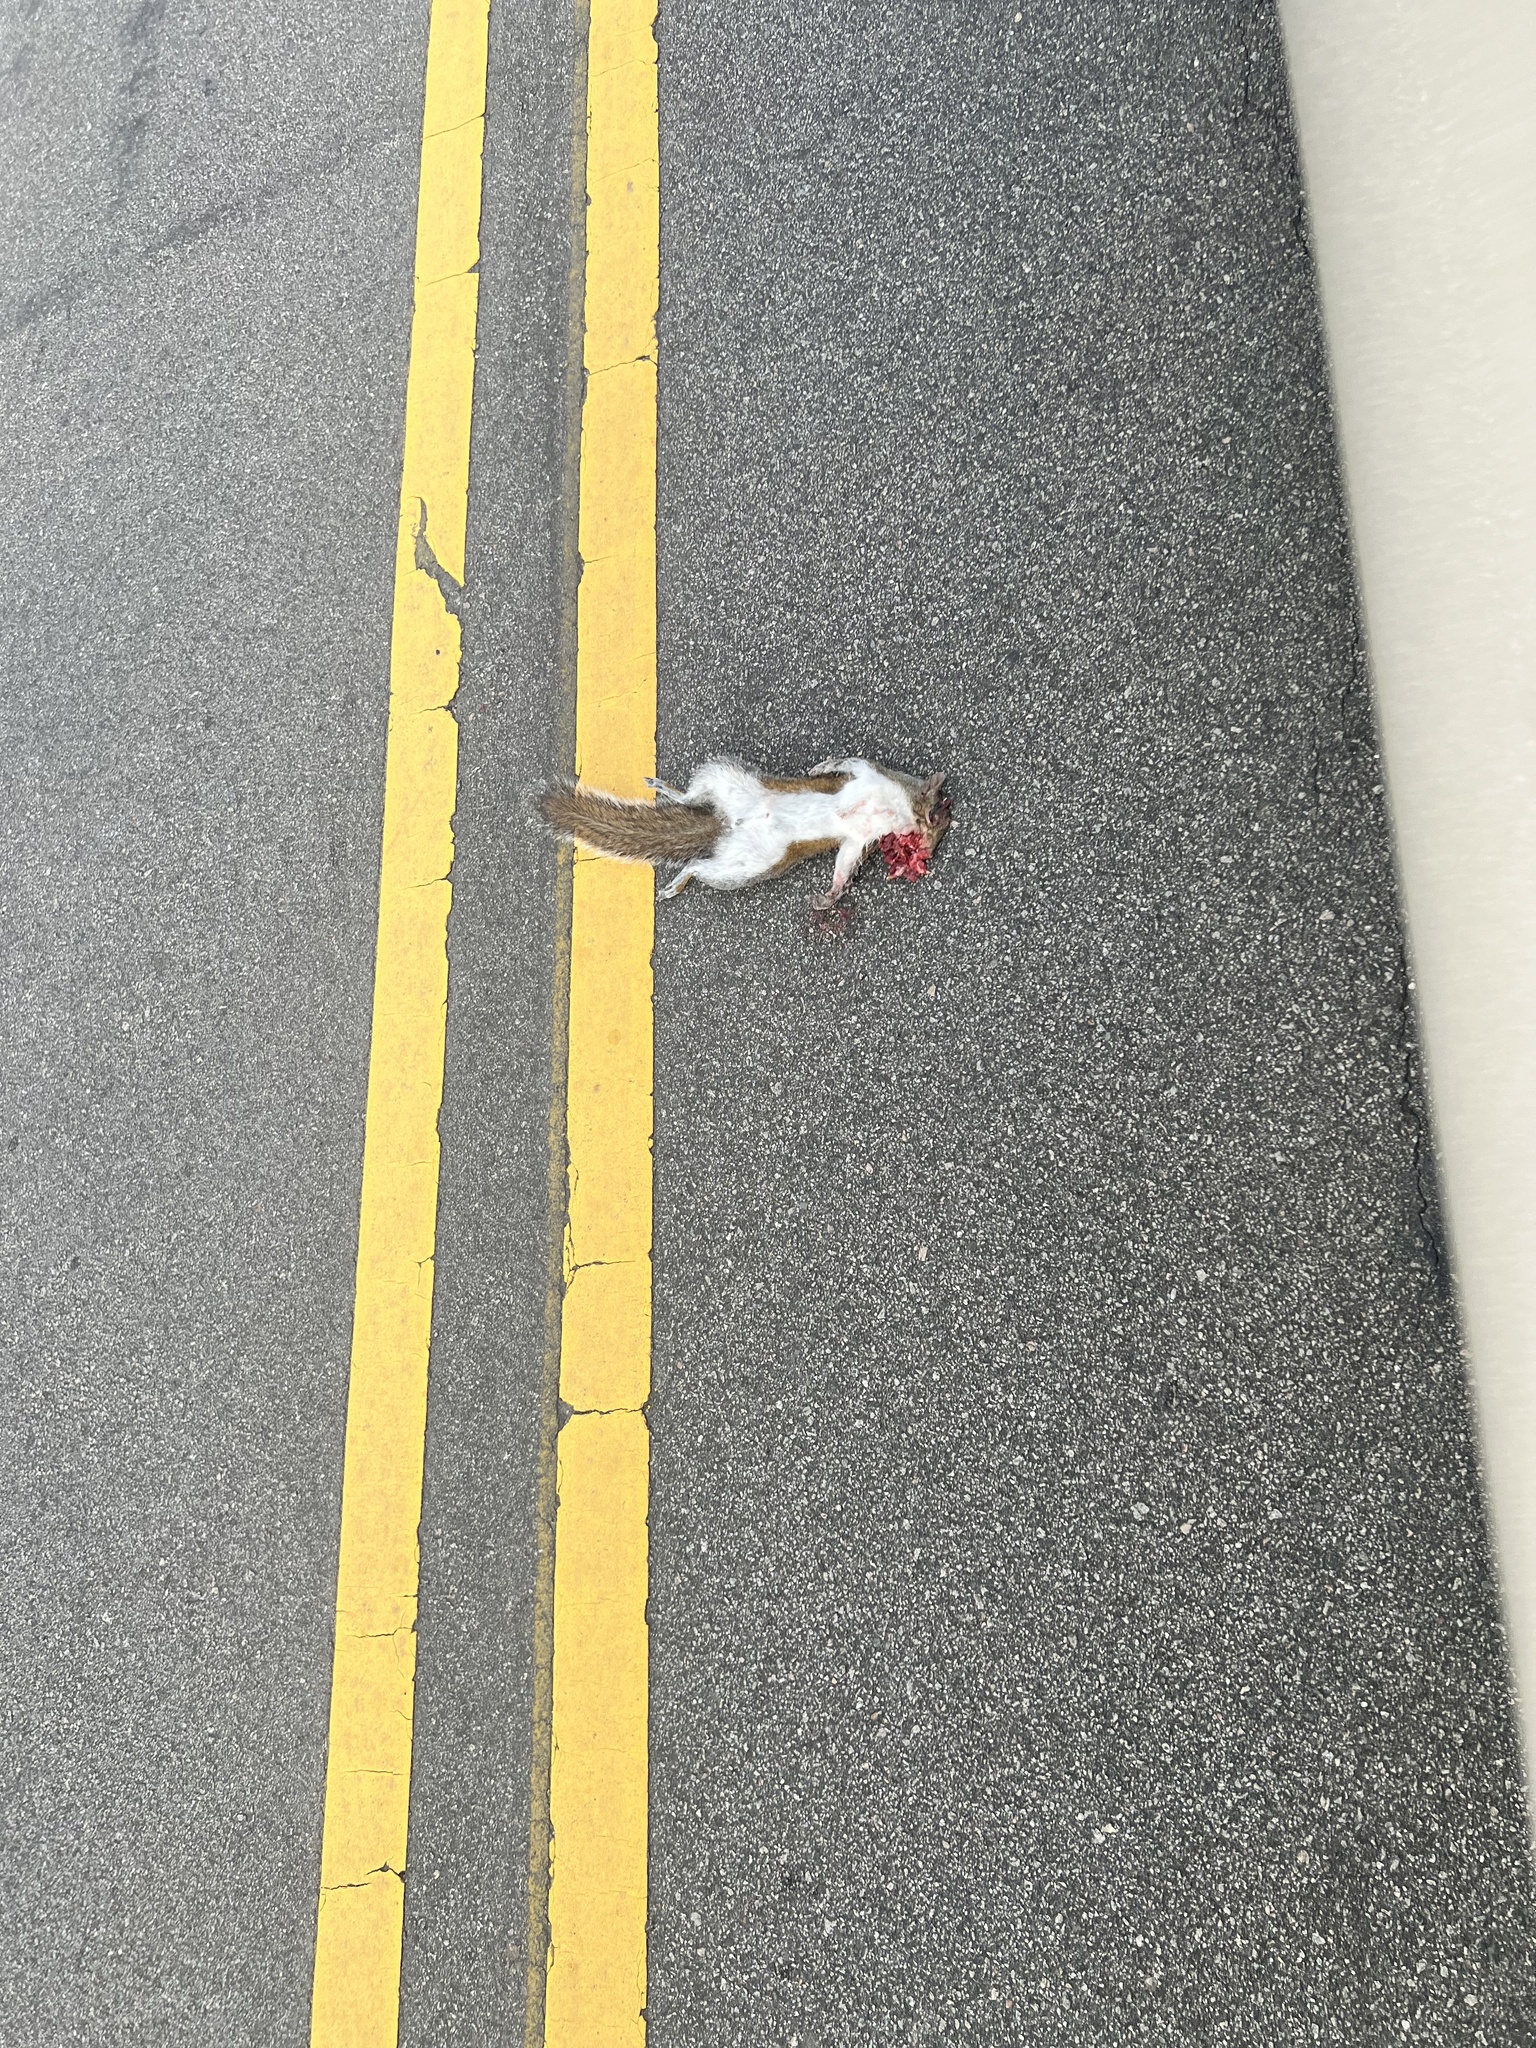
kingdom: Animalia
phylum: Chordata
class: Mammalia
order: Rodentia
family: Sciuridae
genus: Sciurus
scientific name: Sciurus carolinensis
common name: Eastern gray squirrel
